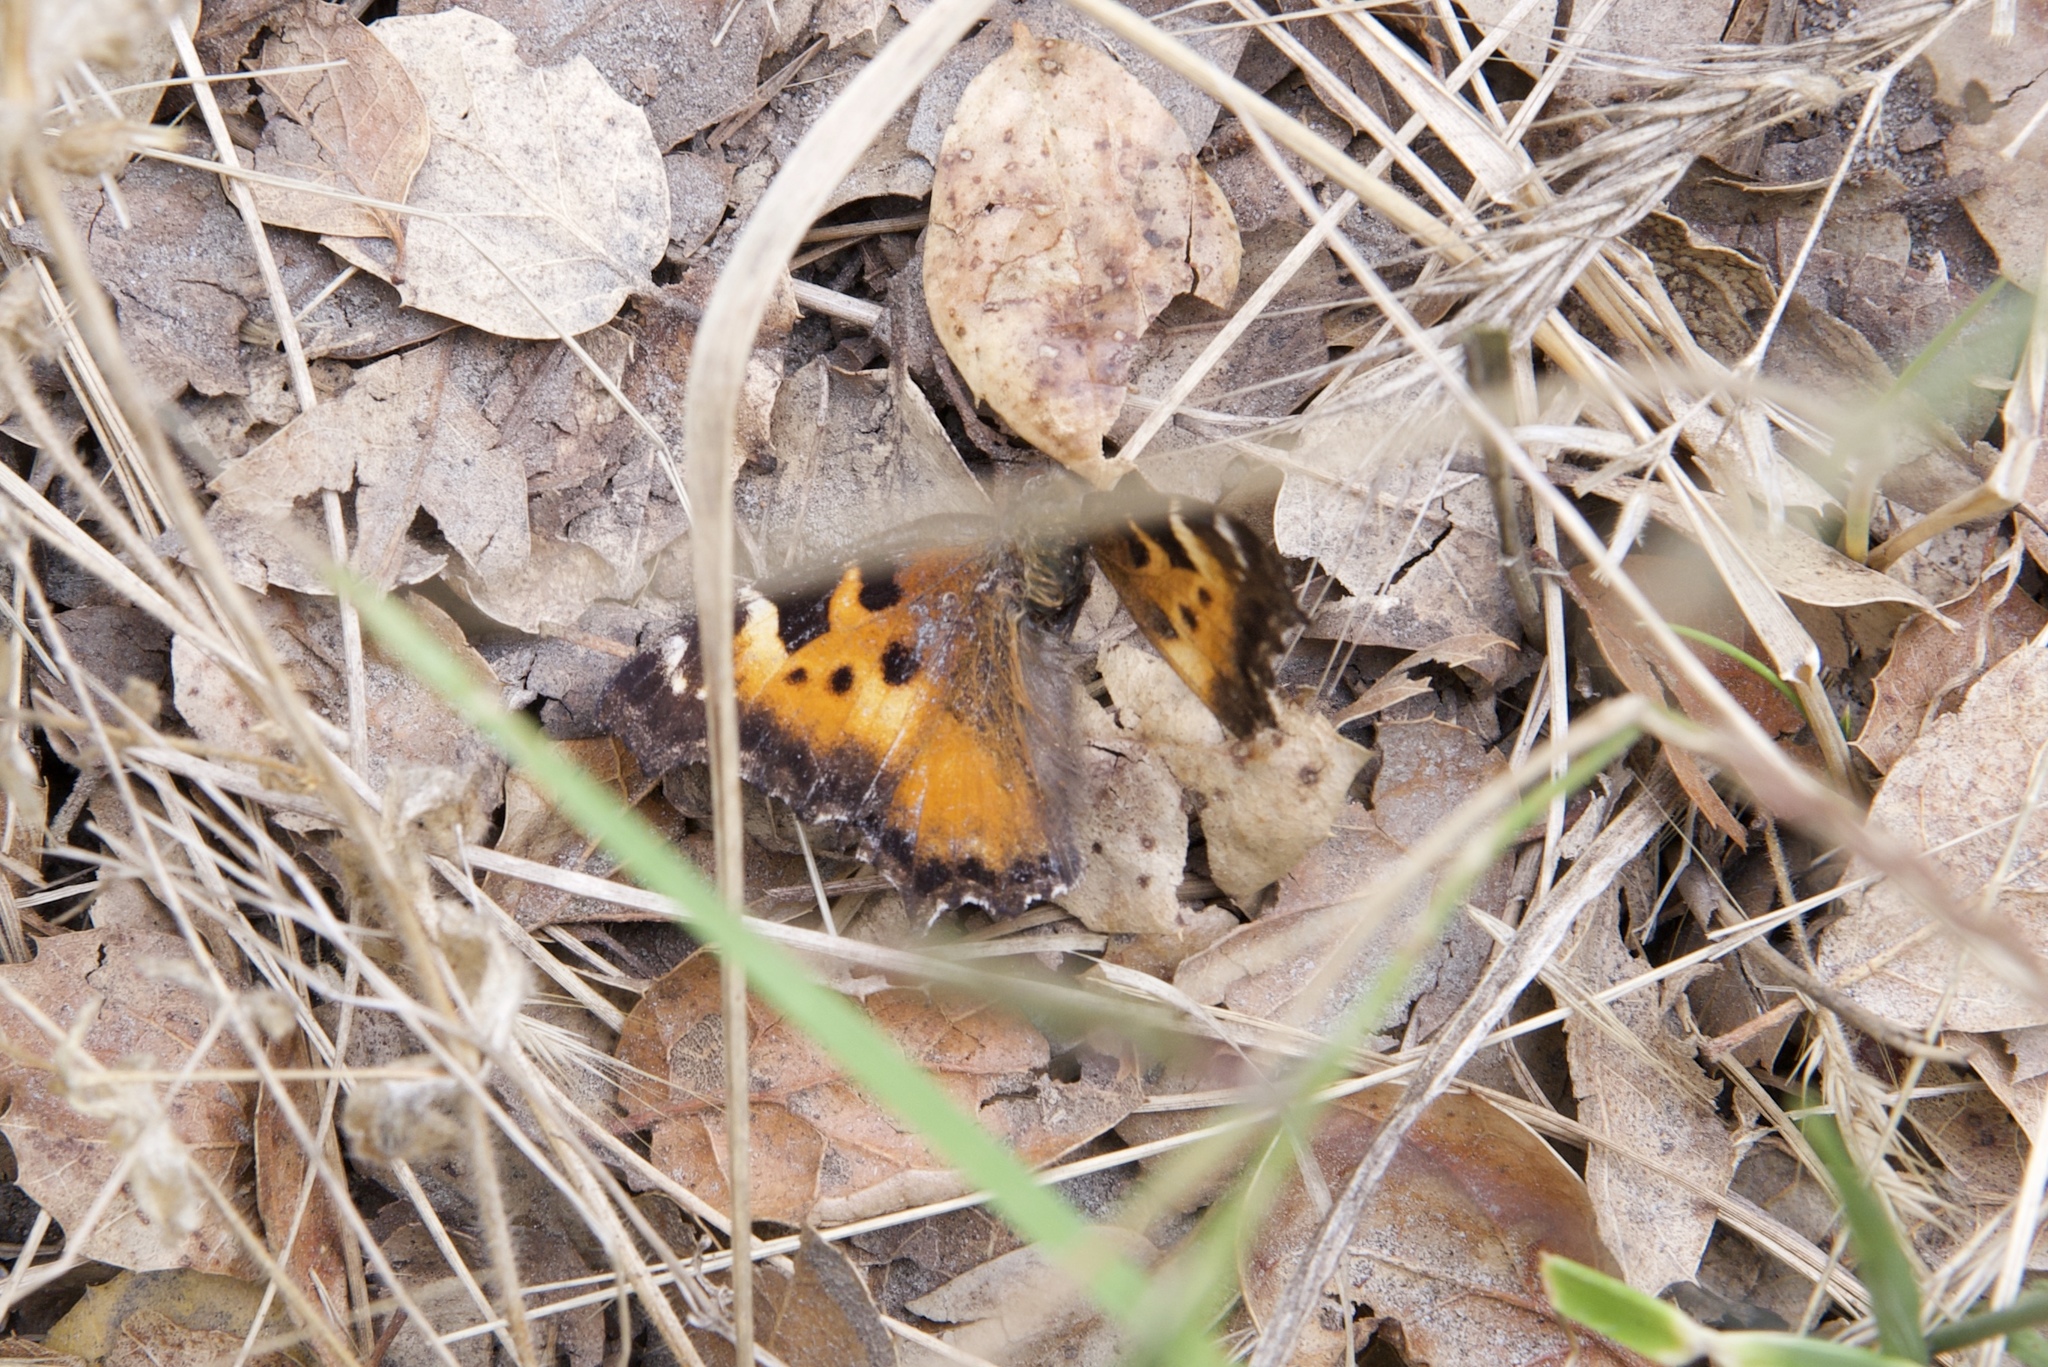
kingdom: Animalia
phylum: Arthropoda
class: Insecta
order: Lepidoptera
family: Nymphalidae
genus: Nymphalis
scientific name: Nymphalis californica
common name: California tortoiseshell
